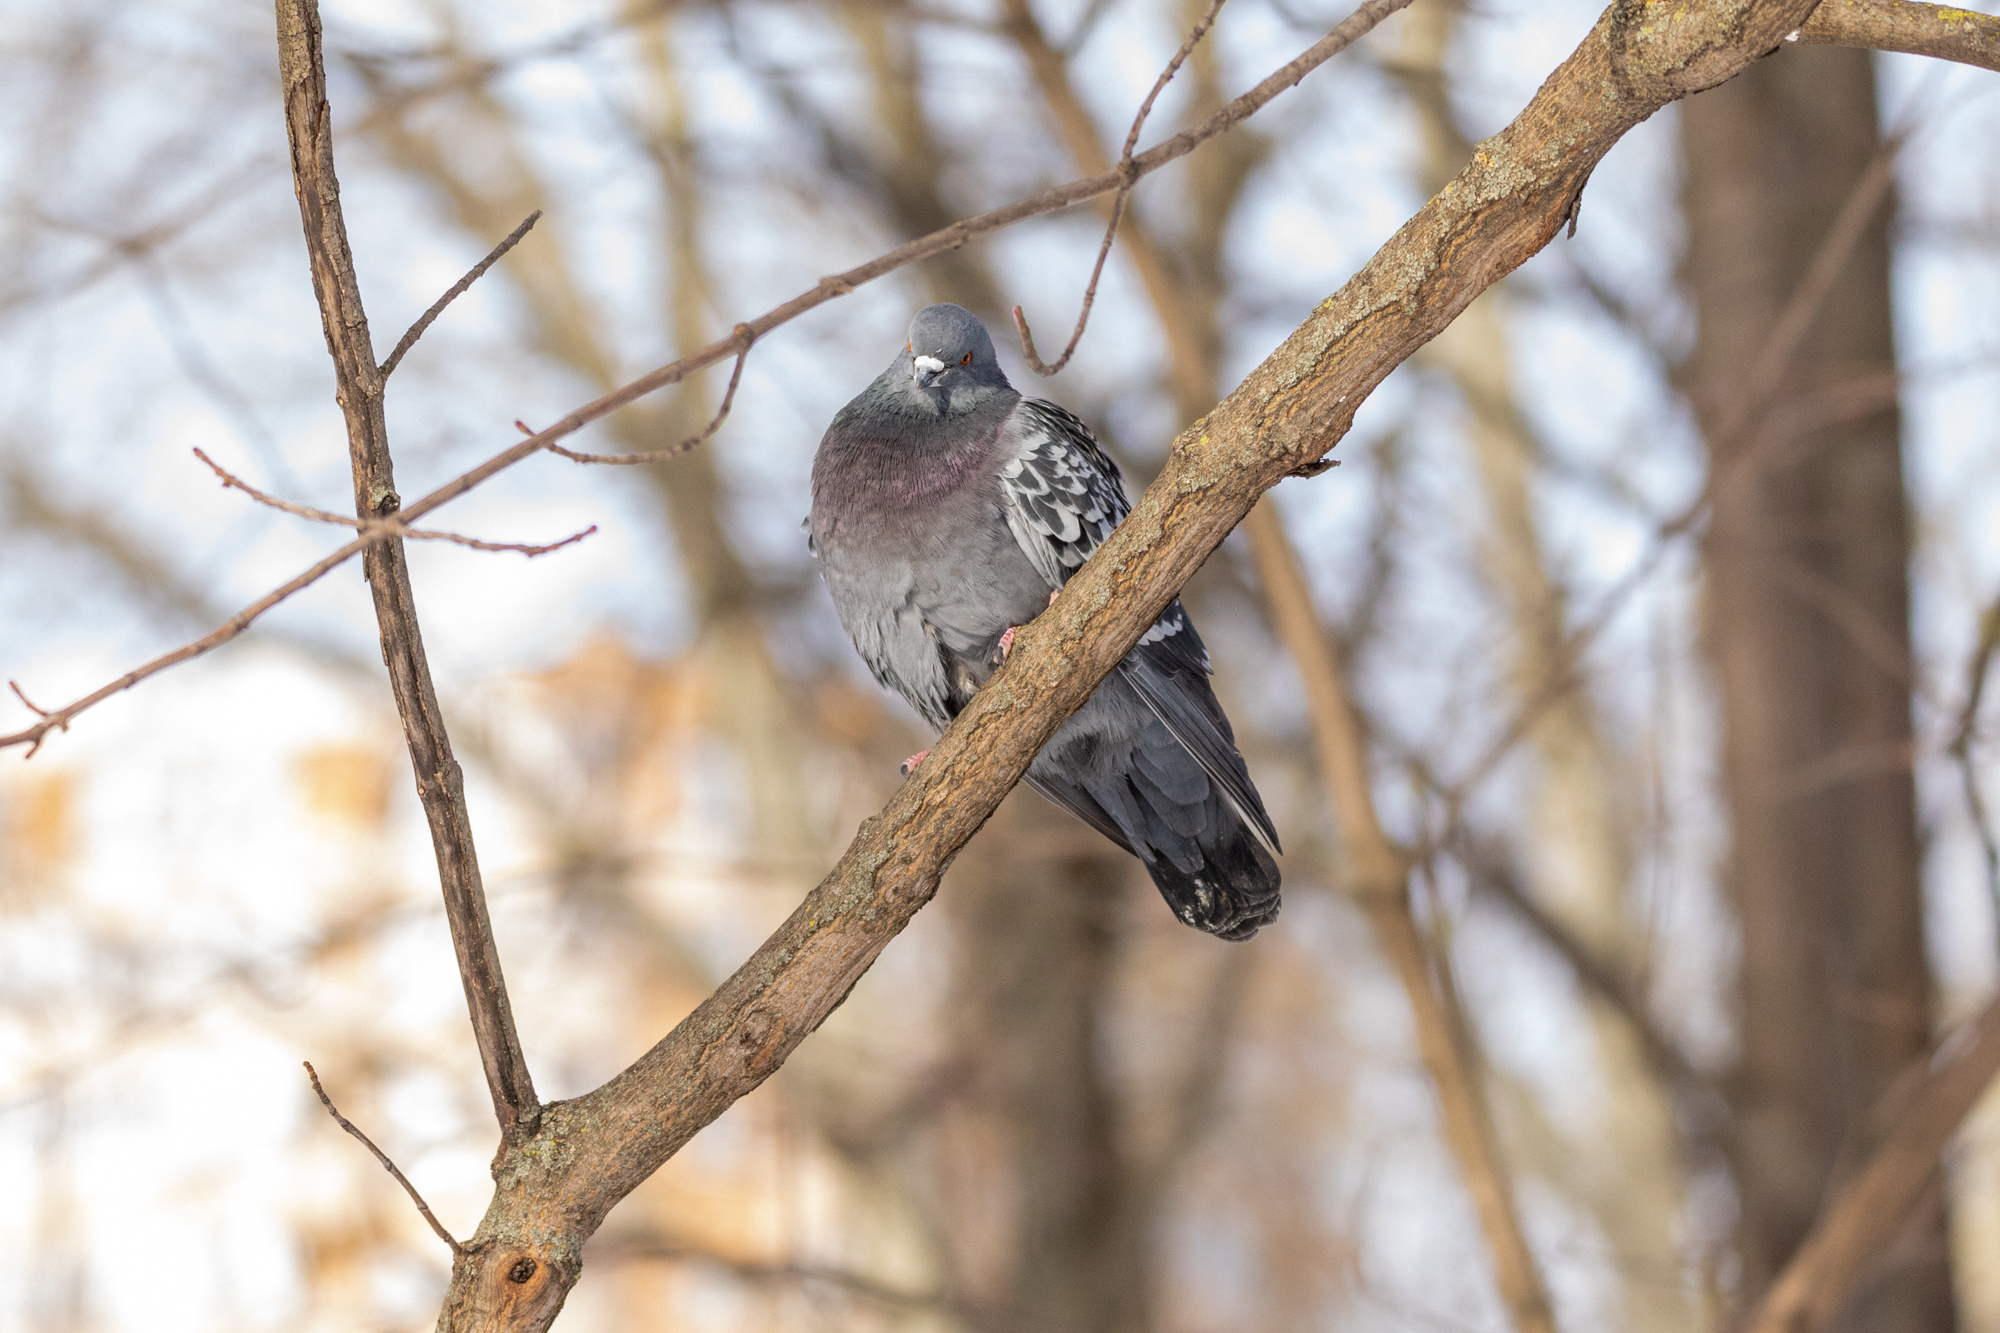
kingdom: Animalia
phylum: Chordata
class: Aves
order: Columbiformes
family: Columbidae
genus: Columba
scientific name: Columba livia
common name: Rock pigeon
